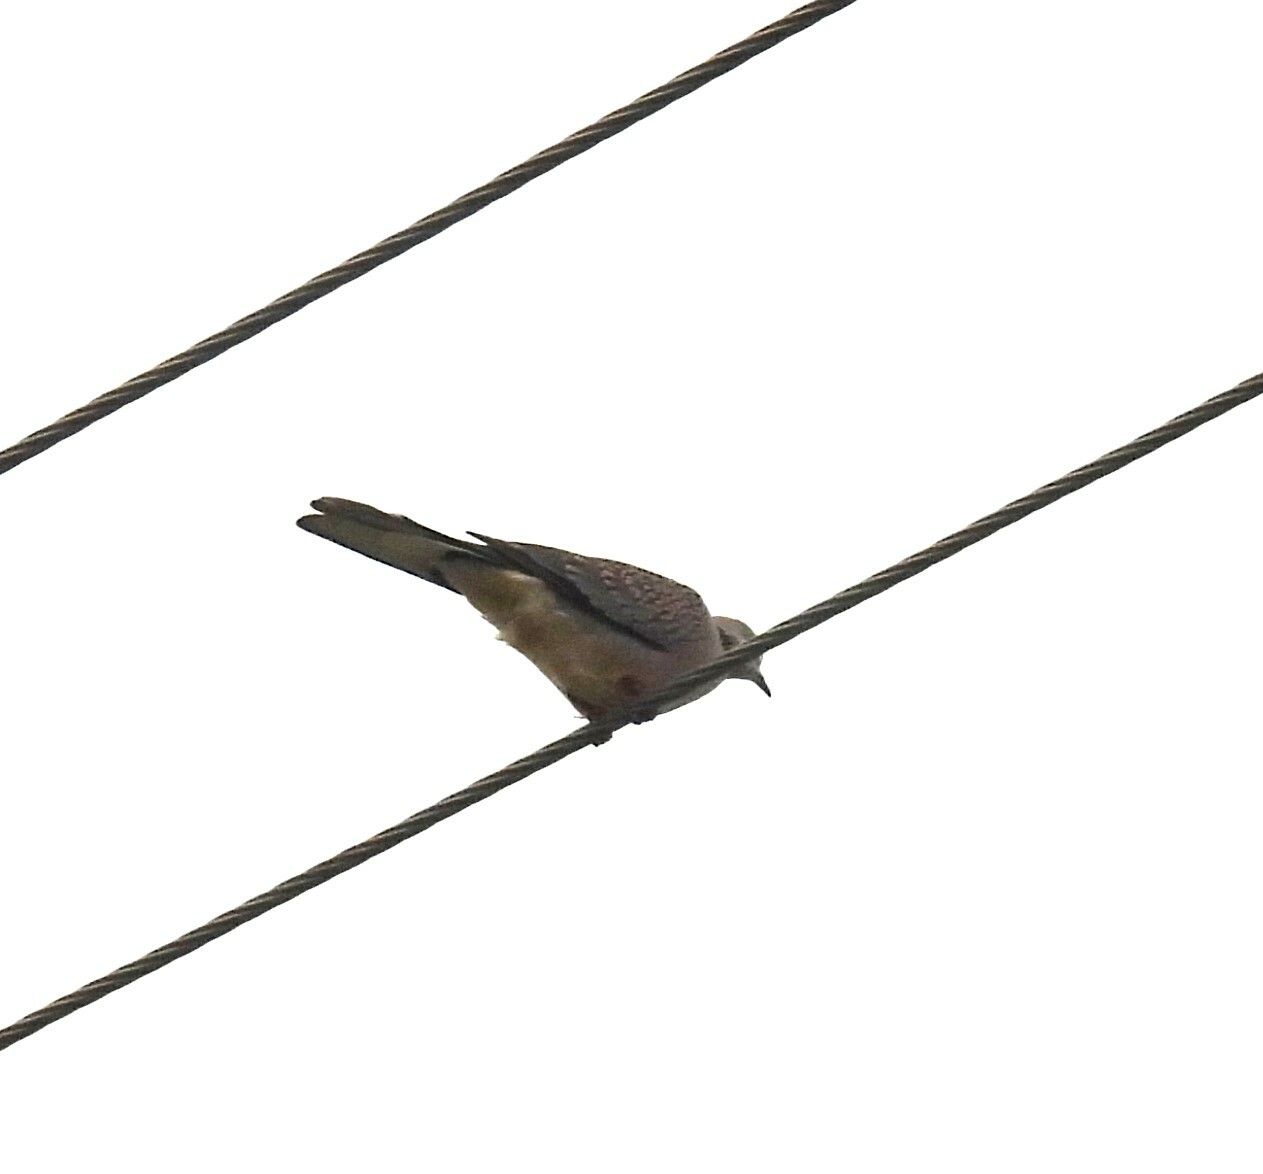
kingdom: Animalia
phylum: Chordata
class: Aves
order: Columbiformes
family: Columbidae
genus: Spilopelia
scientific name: Spilopelia chinensis
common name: Spotted dove
